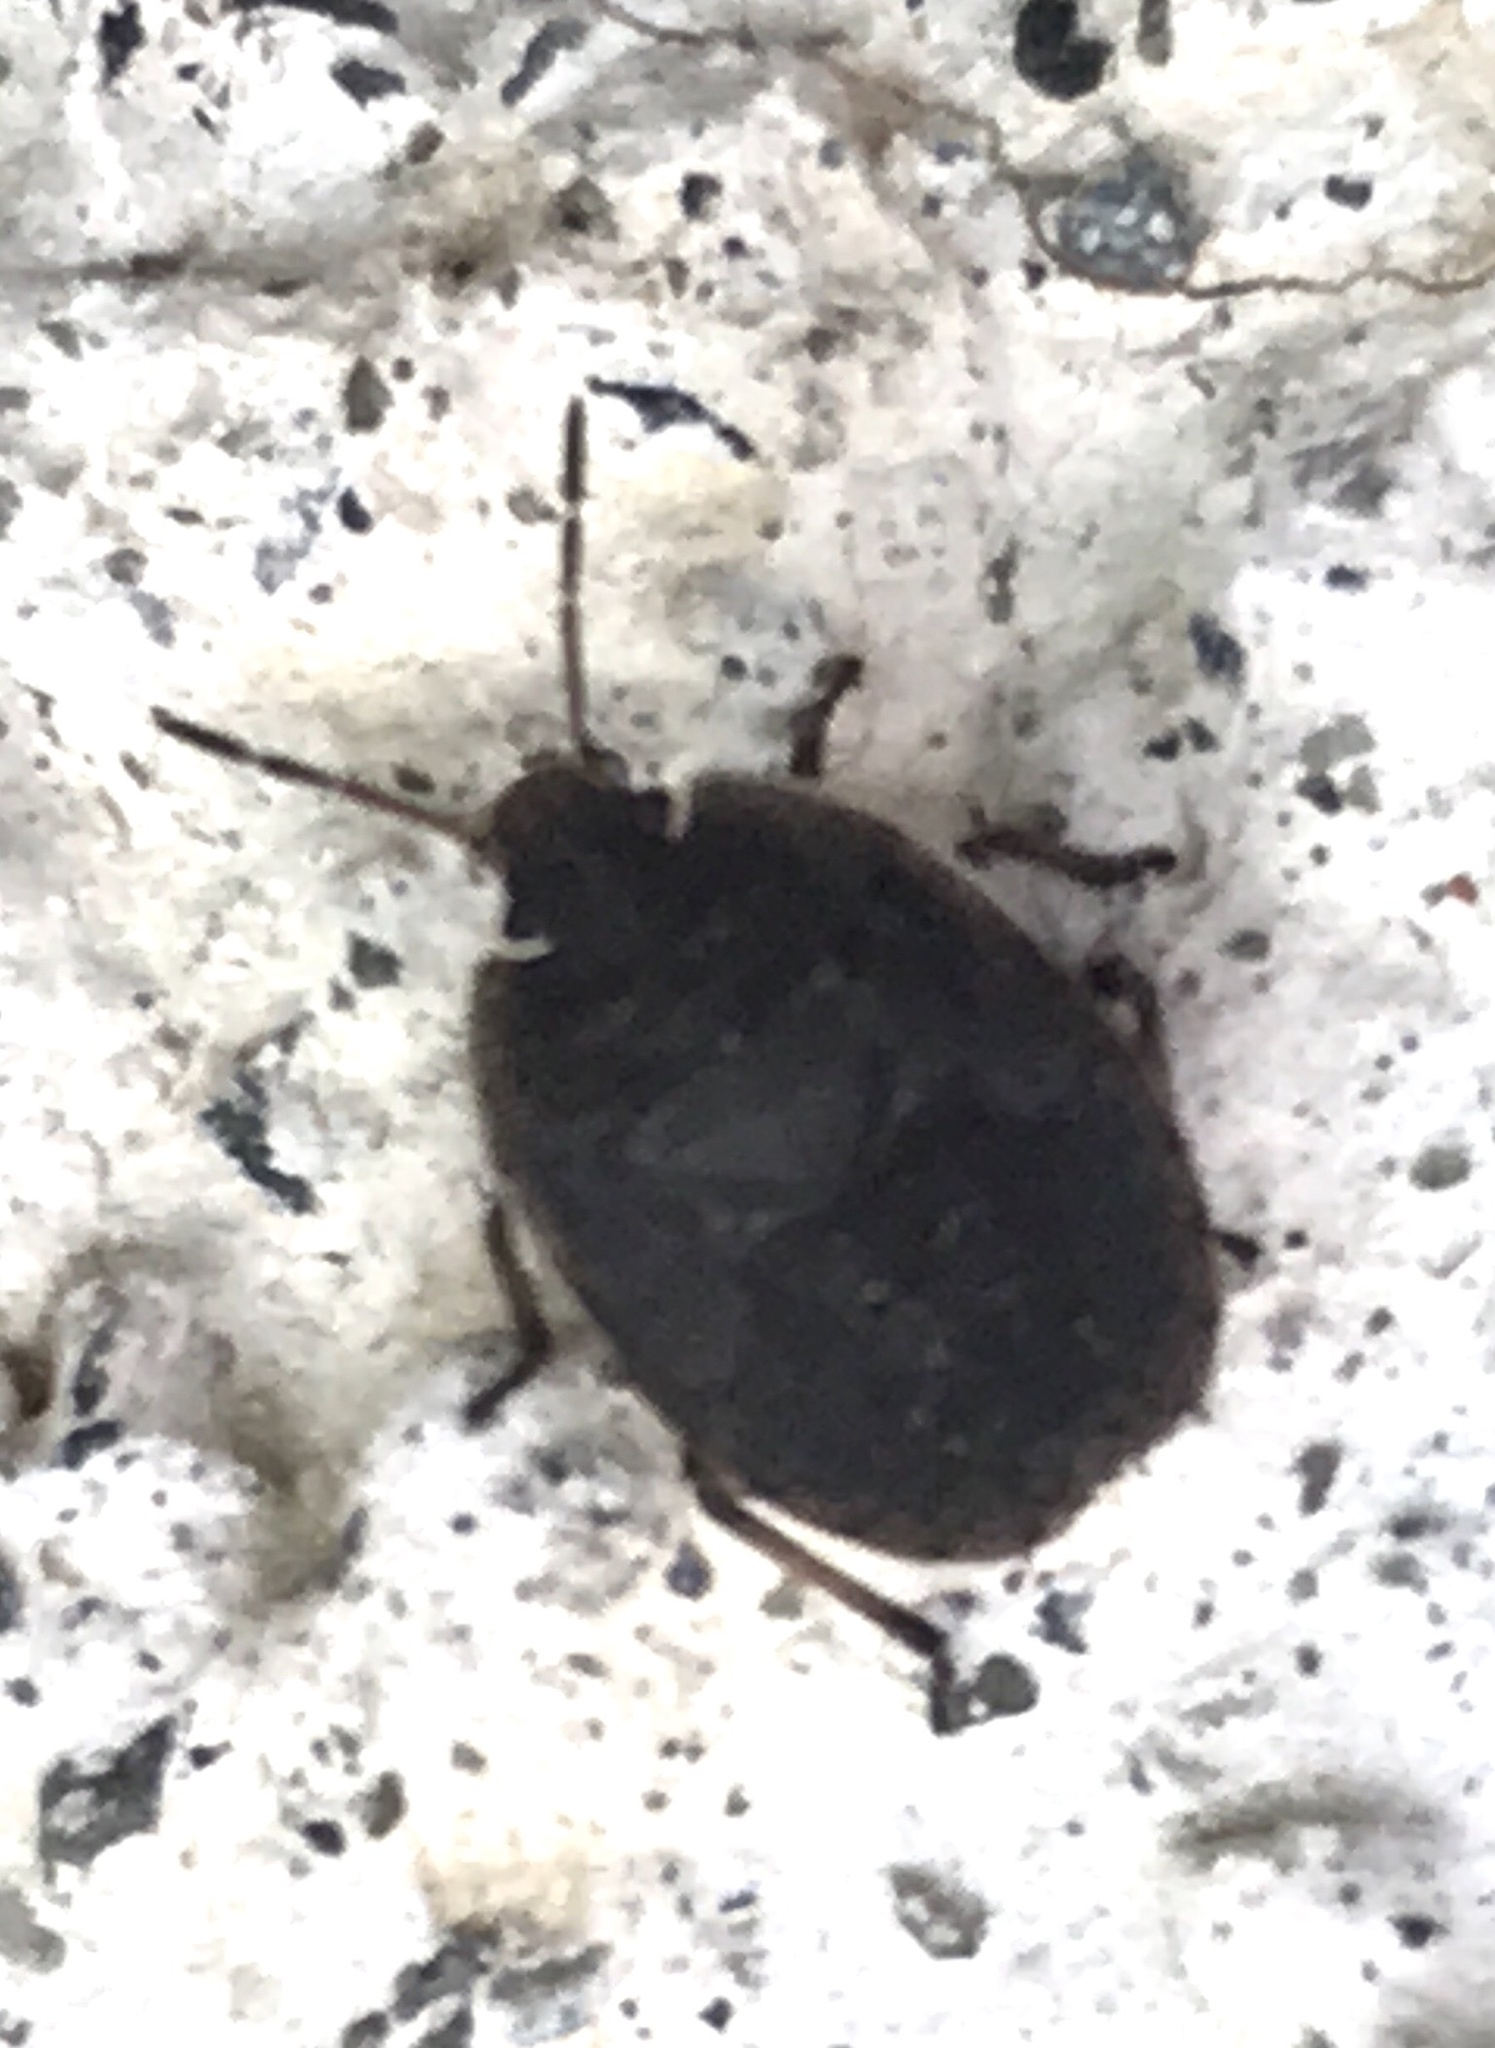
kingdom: Animalia
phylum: Arthropoda
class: Insecta
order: Hemiptera
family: Pentatomidae
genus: Menecles
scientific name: Menecles insertus
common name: Elf shoe stink bug
